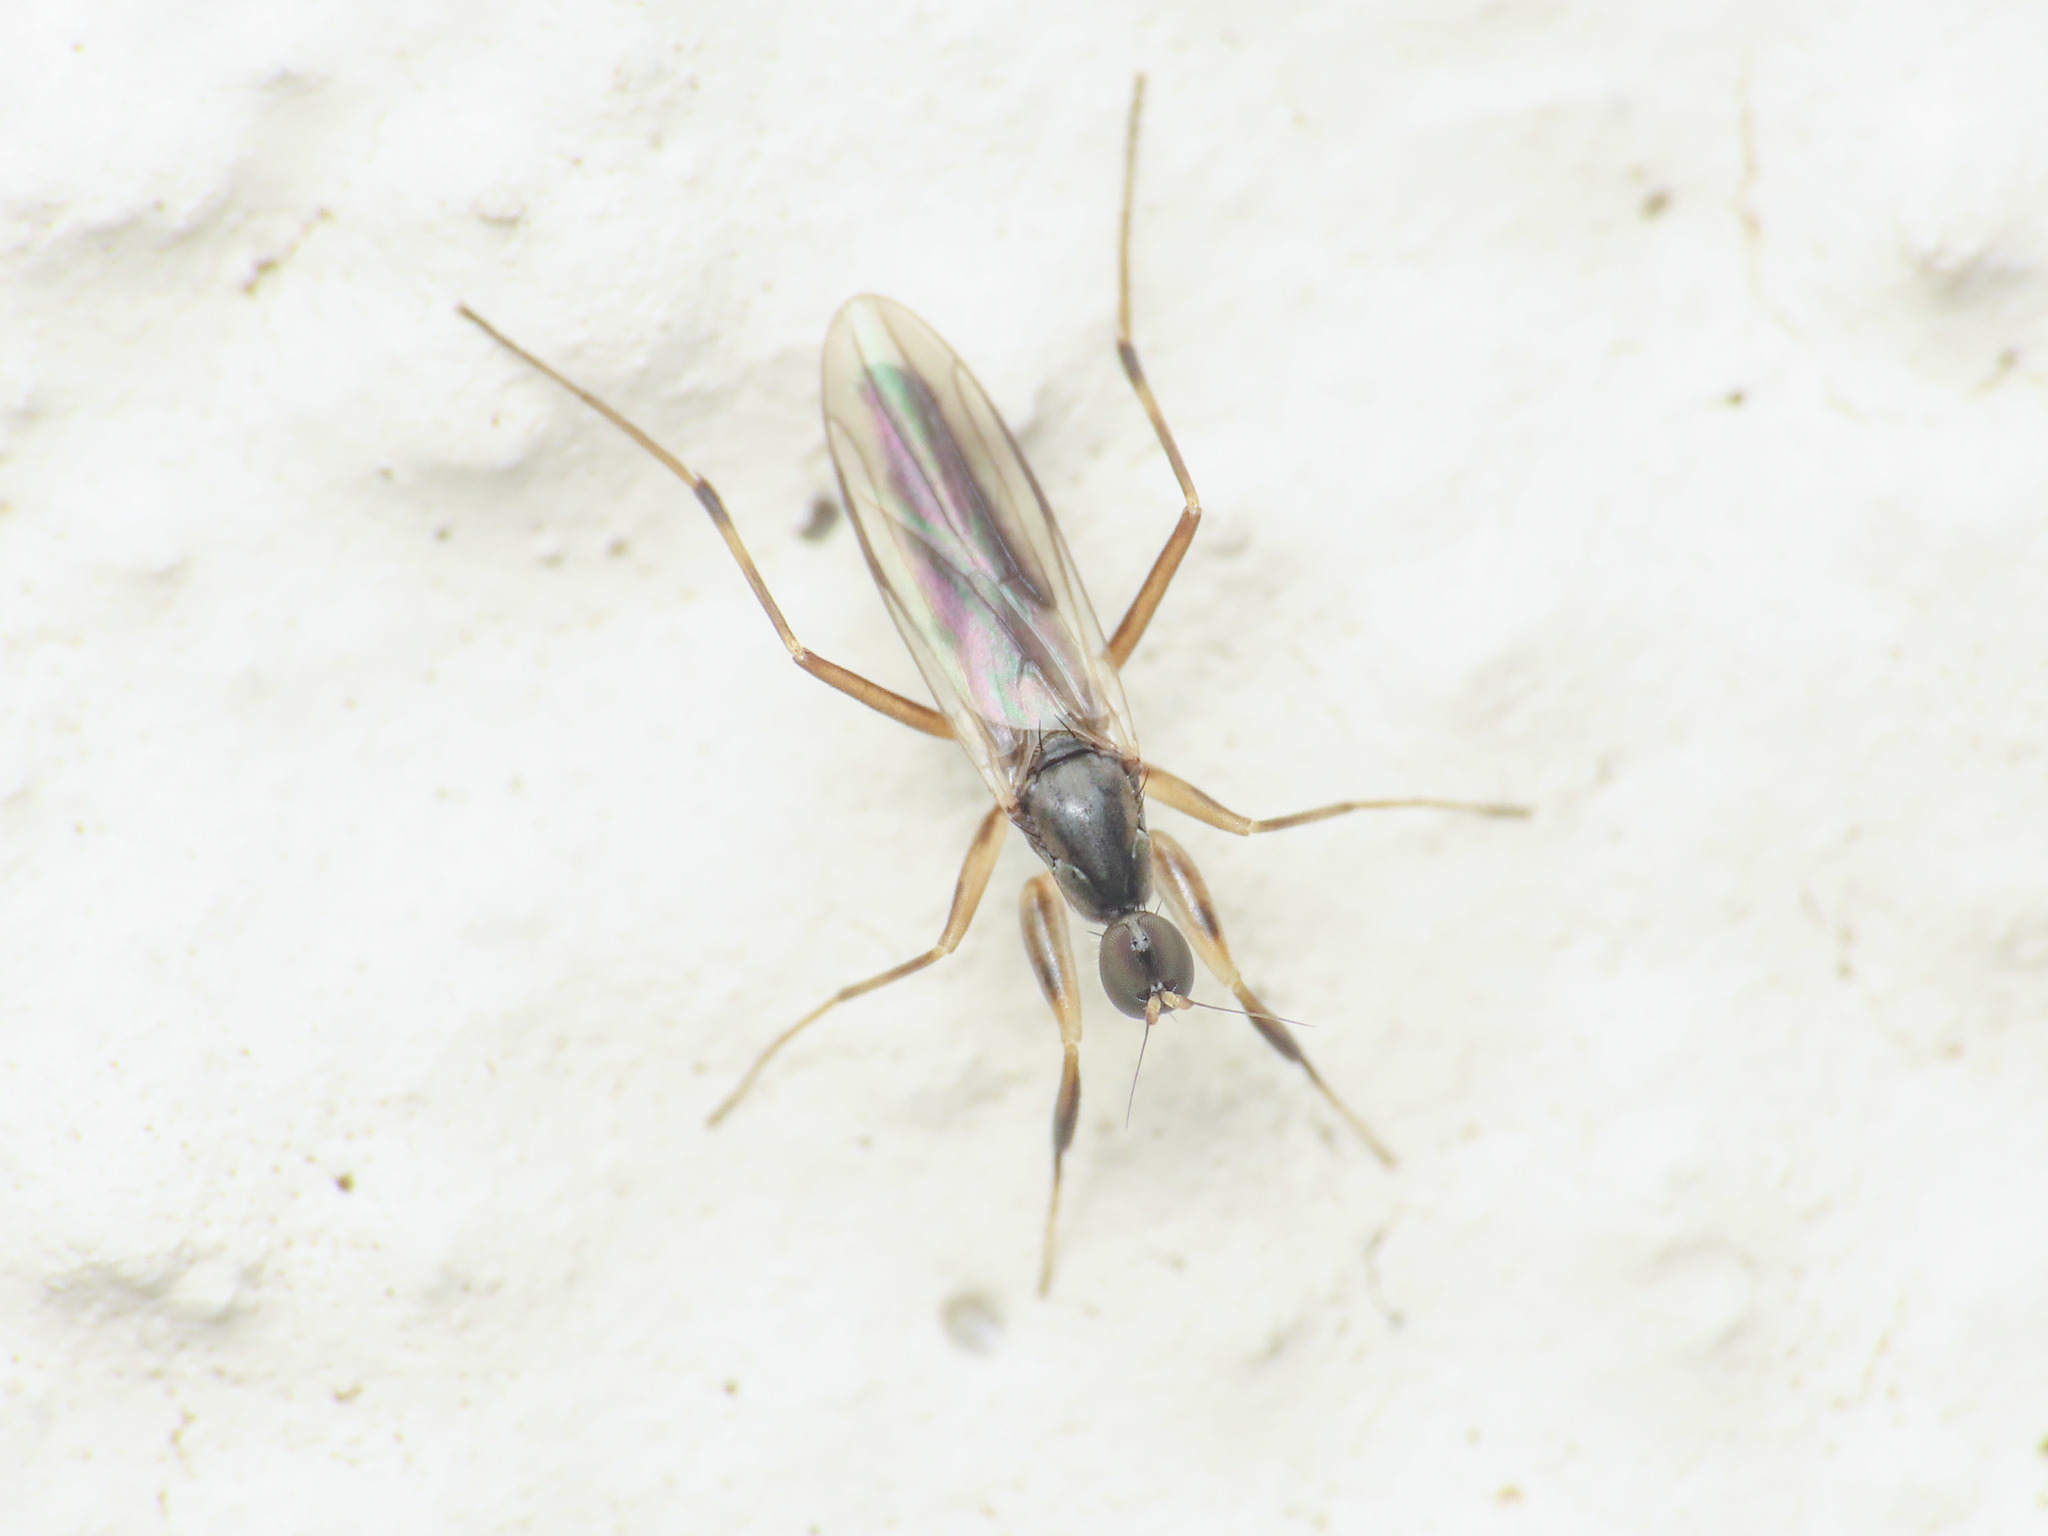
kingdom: Animalia
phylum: Arthropoda
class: Insecta
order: Diptera
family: Hybotidae
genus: Tachypeza
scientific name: Tachypeza nubila
